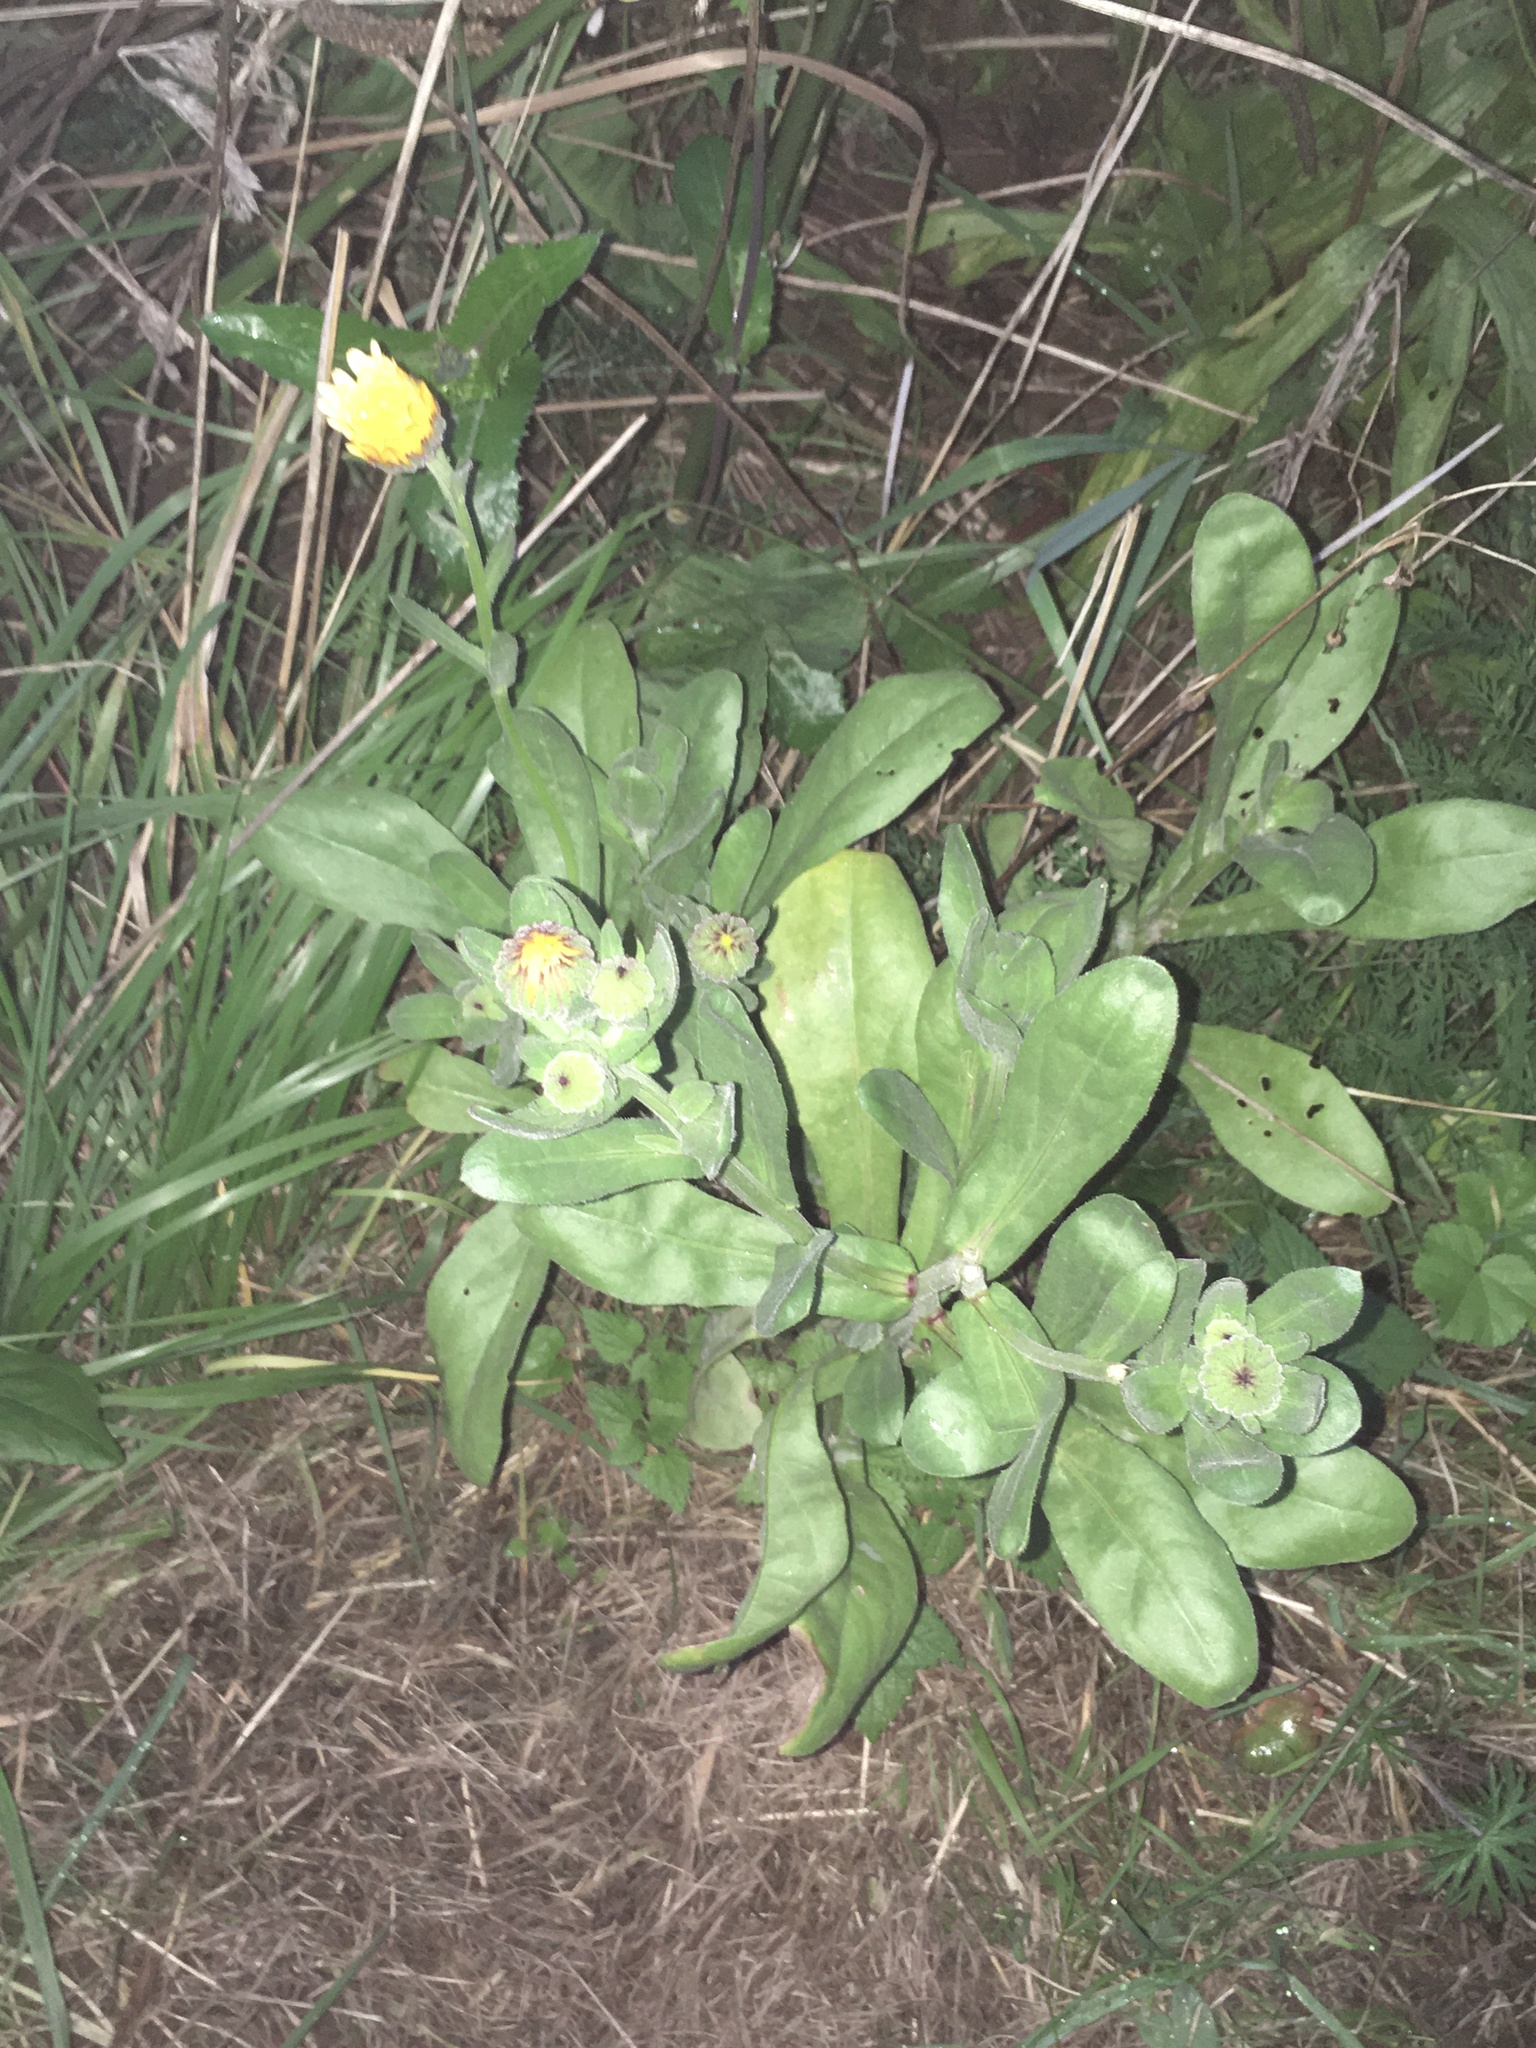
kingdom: Plantae
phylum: Tracheophyta
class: Magnoliopsida
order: Asterales
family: Asteraceae
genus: Calendula
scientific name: Calendula officinalis
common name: Pot marigold
